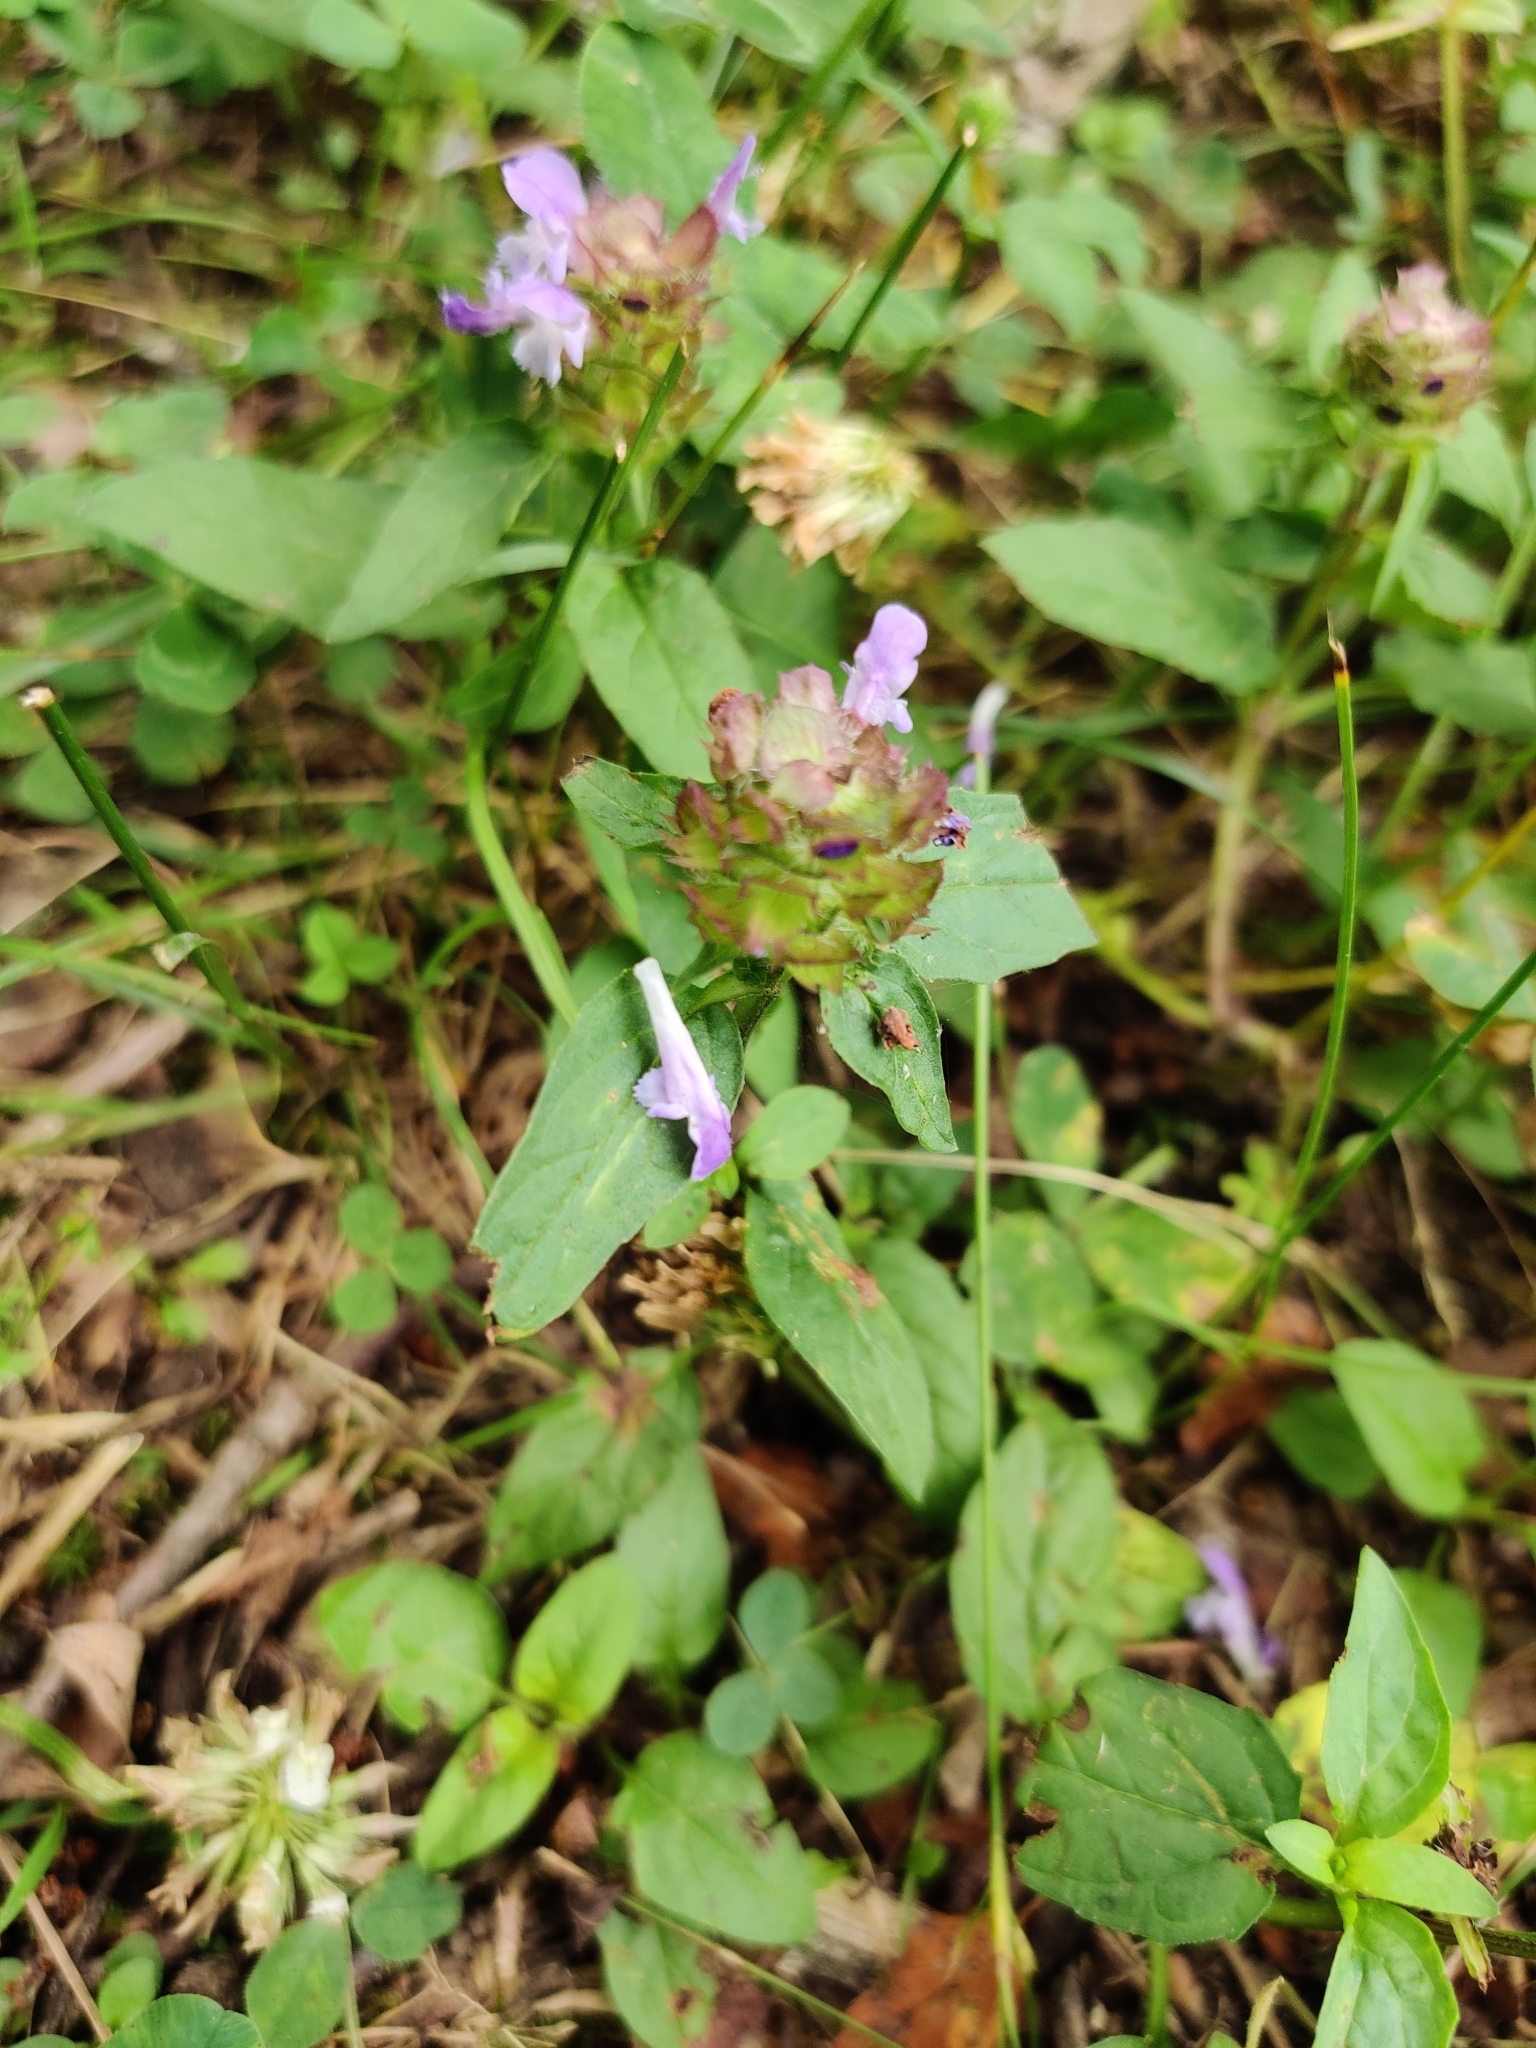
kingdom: Plantae
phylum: Tracheophyta
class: Magnoliopsida
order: Lamiales
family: Lamiaceae
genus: Prunella
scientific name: Prunella vulgaris
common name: Heal-all
